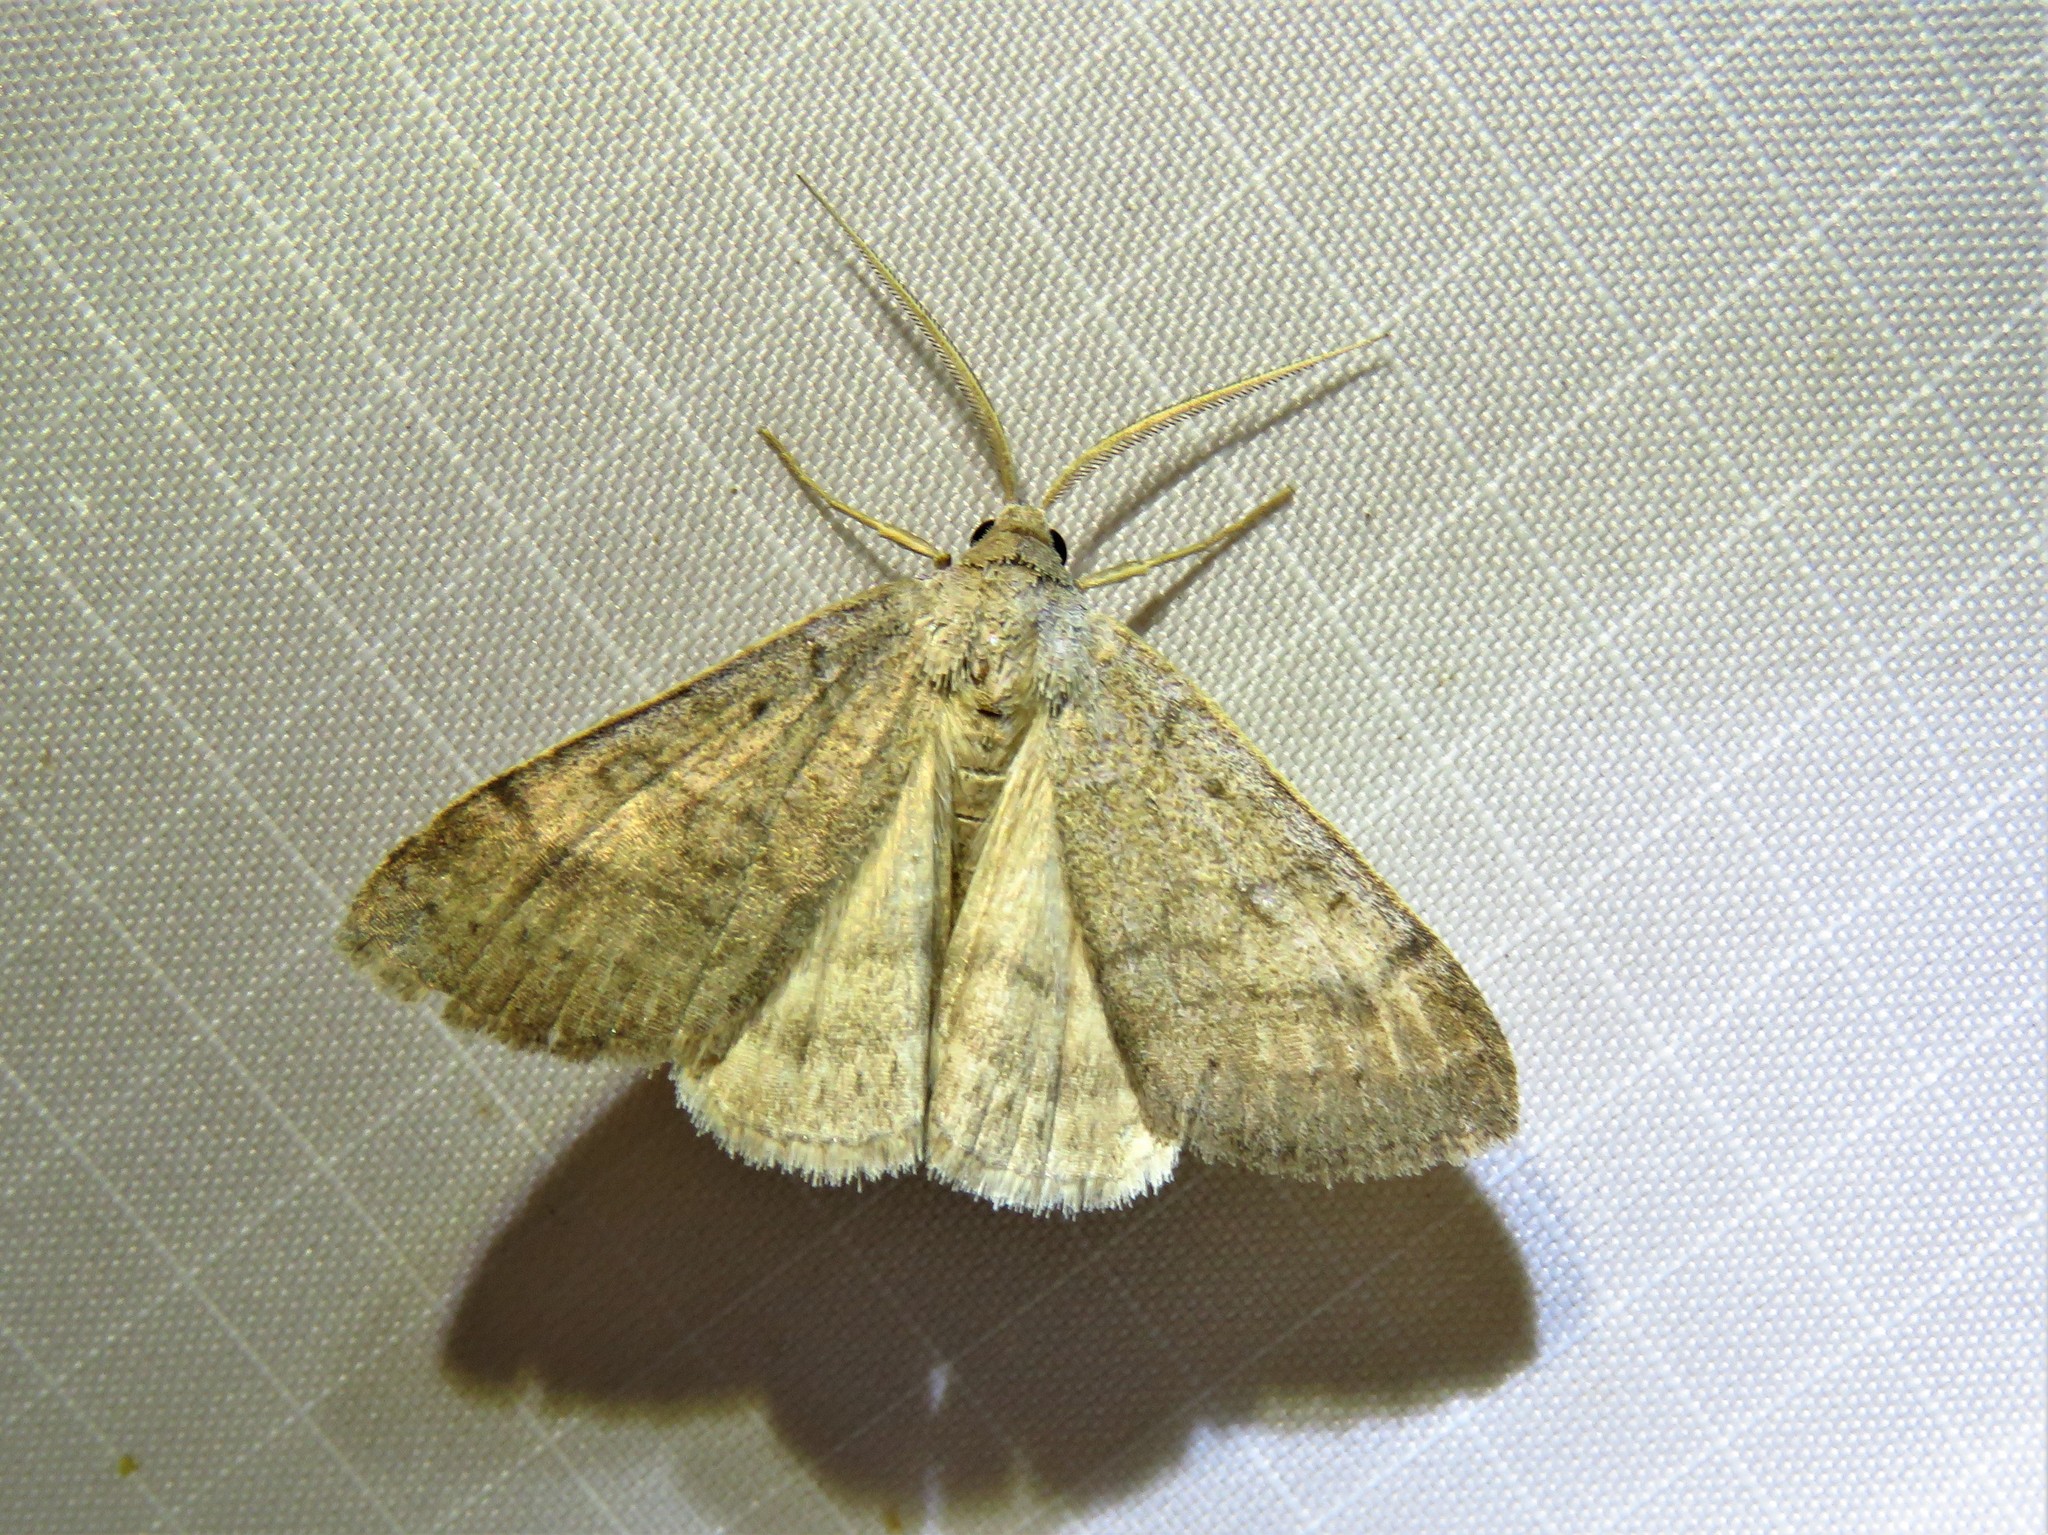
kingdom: Animalia
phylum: Arthropoda
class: Insecta
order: Lepidoptera
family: Erebidae
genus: Caenurgia
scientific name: Caenurgia chloropha
